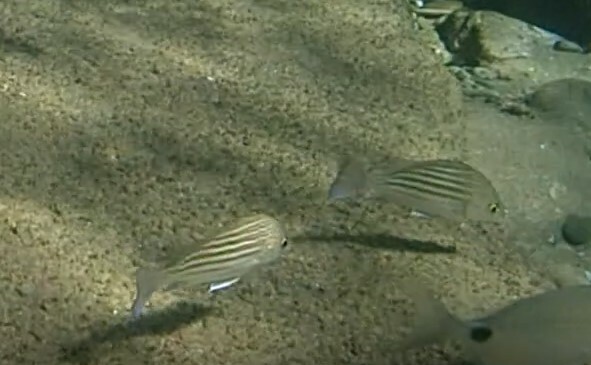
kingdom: Animalia
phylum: Chordata
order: Perciformes
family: Haemulidae
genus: Pomadasys
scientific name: Pomadasys furcatus
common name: Banded grunter
